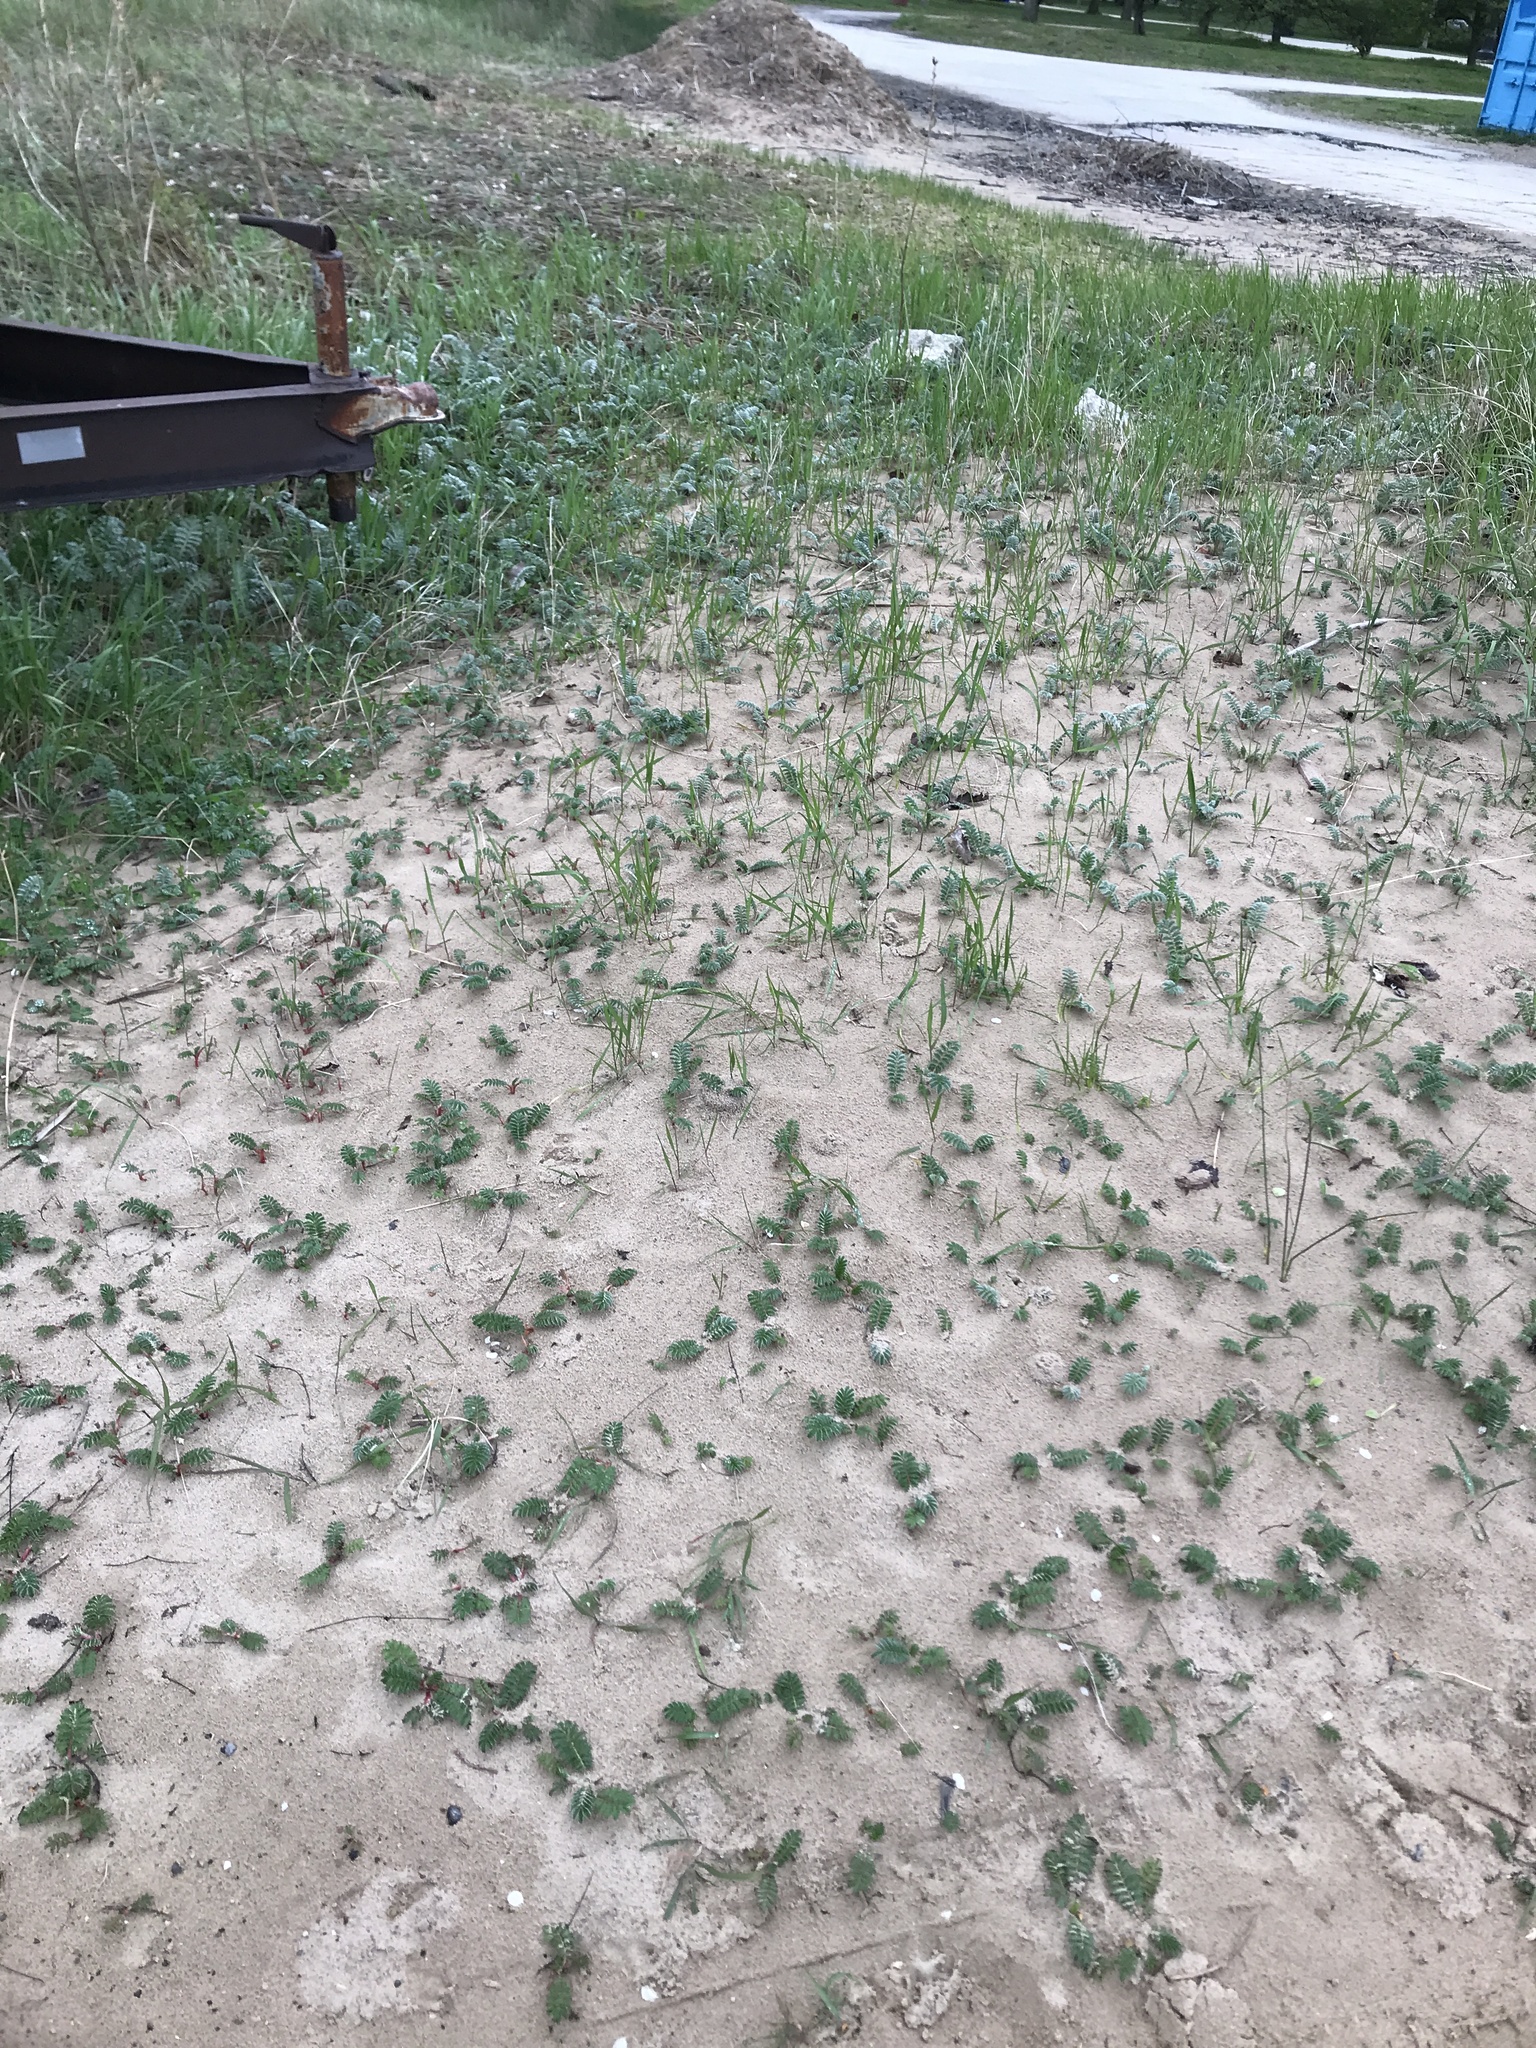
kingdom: Plantae
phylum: Tracheophyta
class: Magnoliopsida
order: Rosales
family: Rosaceae
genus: Argentina
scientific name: Argentina anserina
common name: Common silverweed
